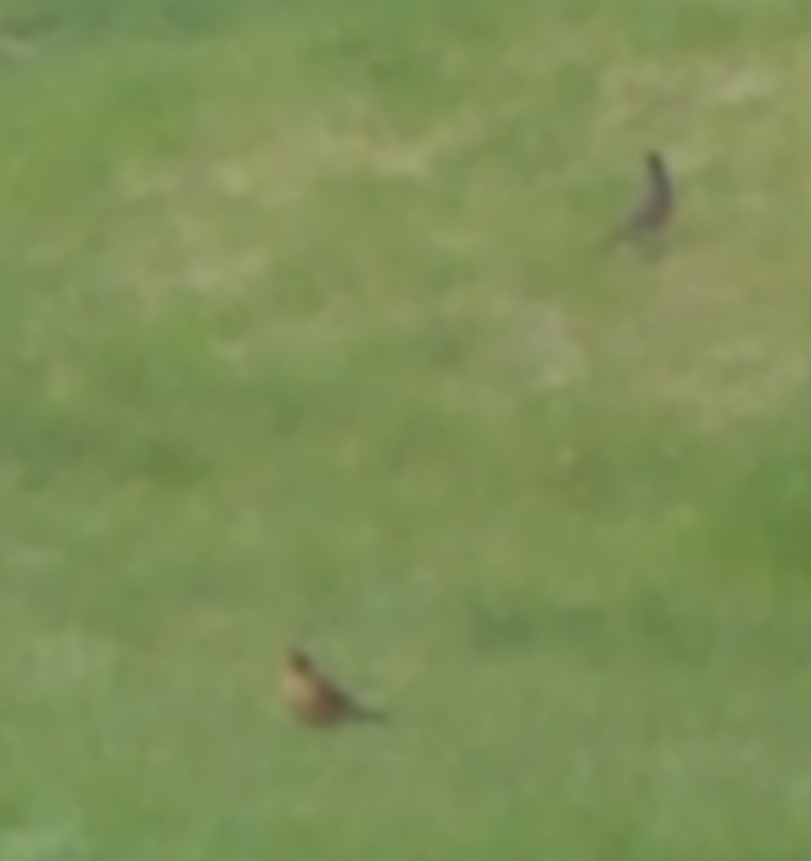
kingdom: Animalia
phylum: Chordata
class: Aves
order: Passeriformes
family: Turdidae
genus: Turdus
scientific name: Turdus migratorius
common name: American robin
